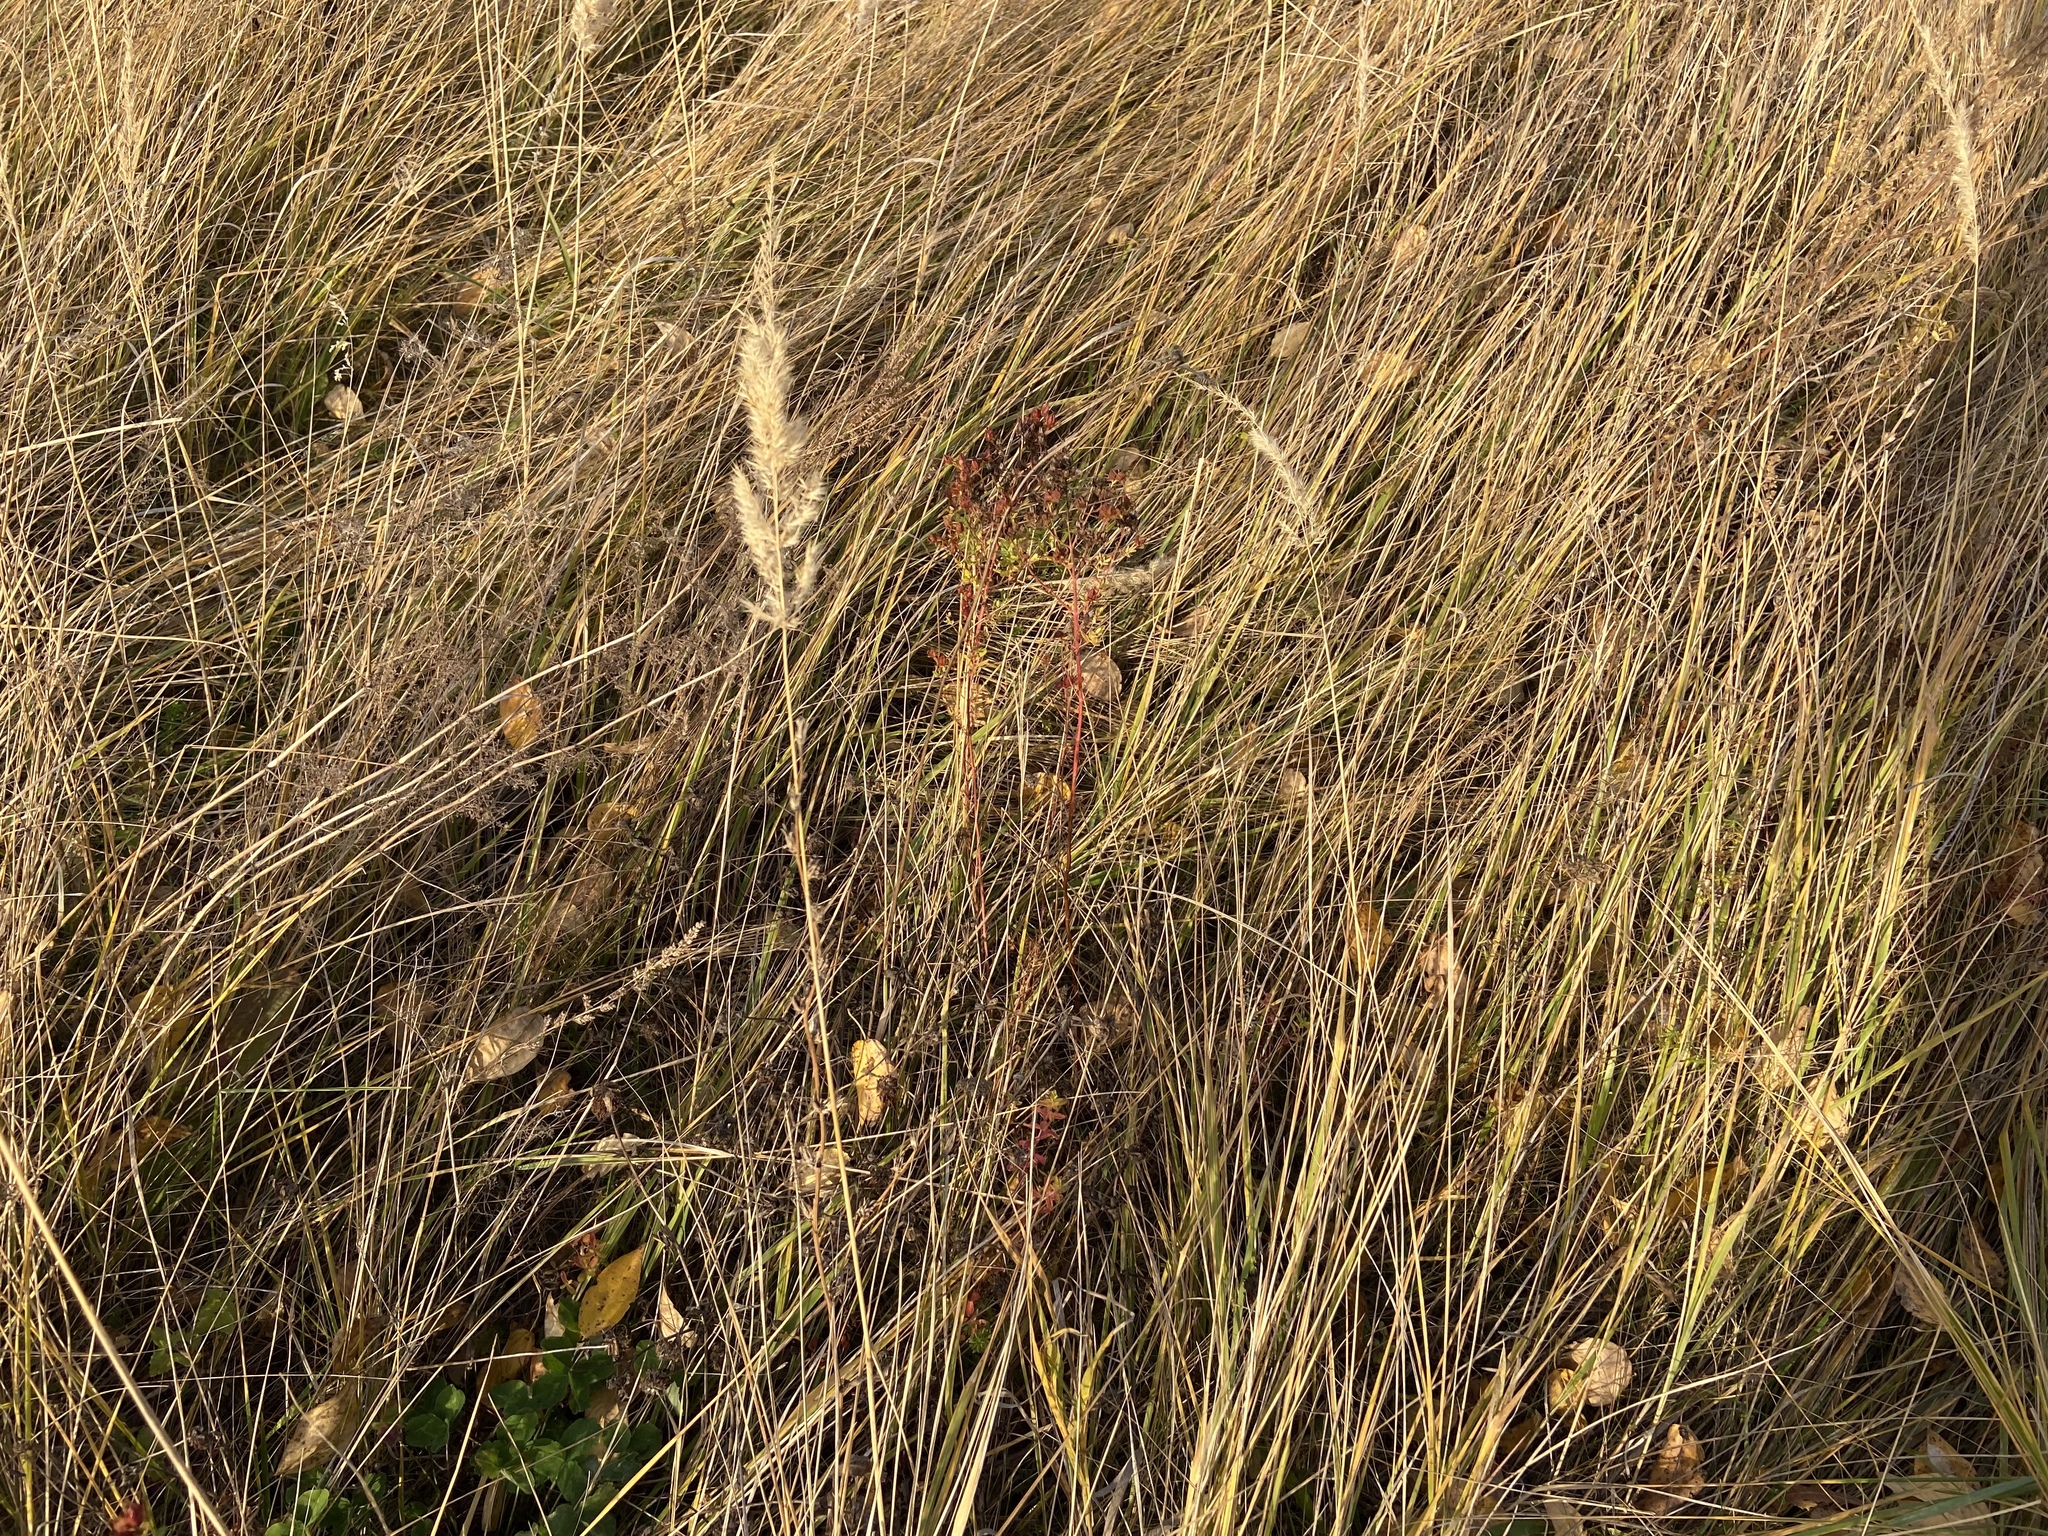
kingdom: Plantae
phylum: Tracheophyta
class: Liliopsida
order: Poales
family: Poaceae
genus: Calamagrostis
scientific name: Calamagrostis epigejos
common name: Wood small-reed
